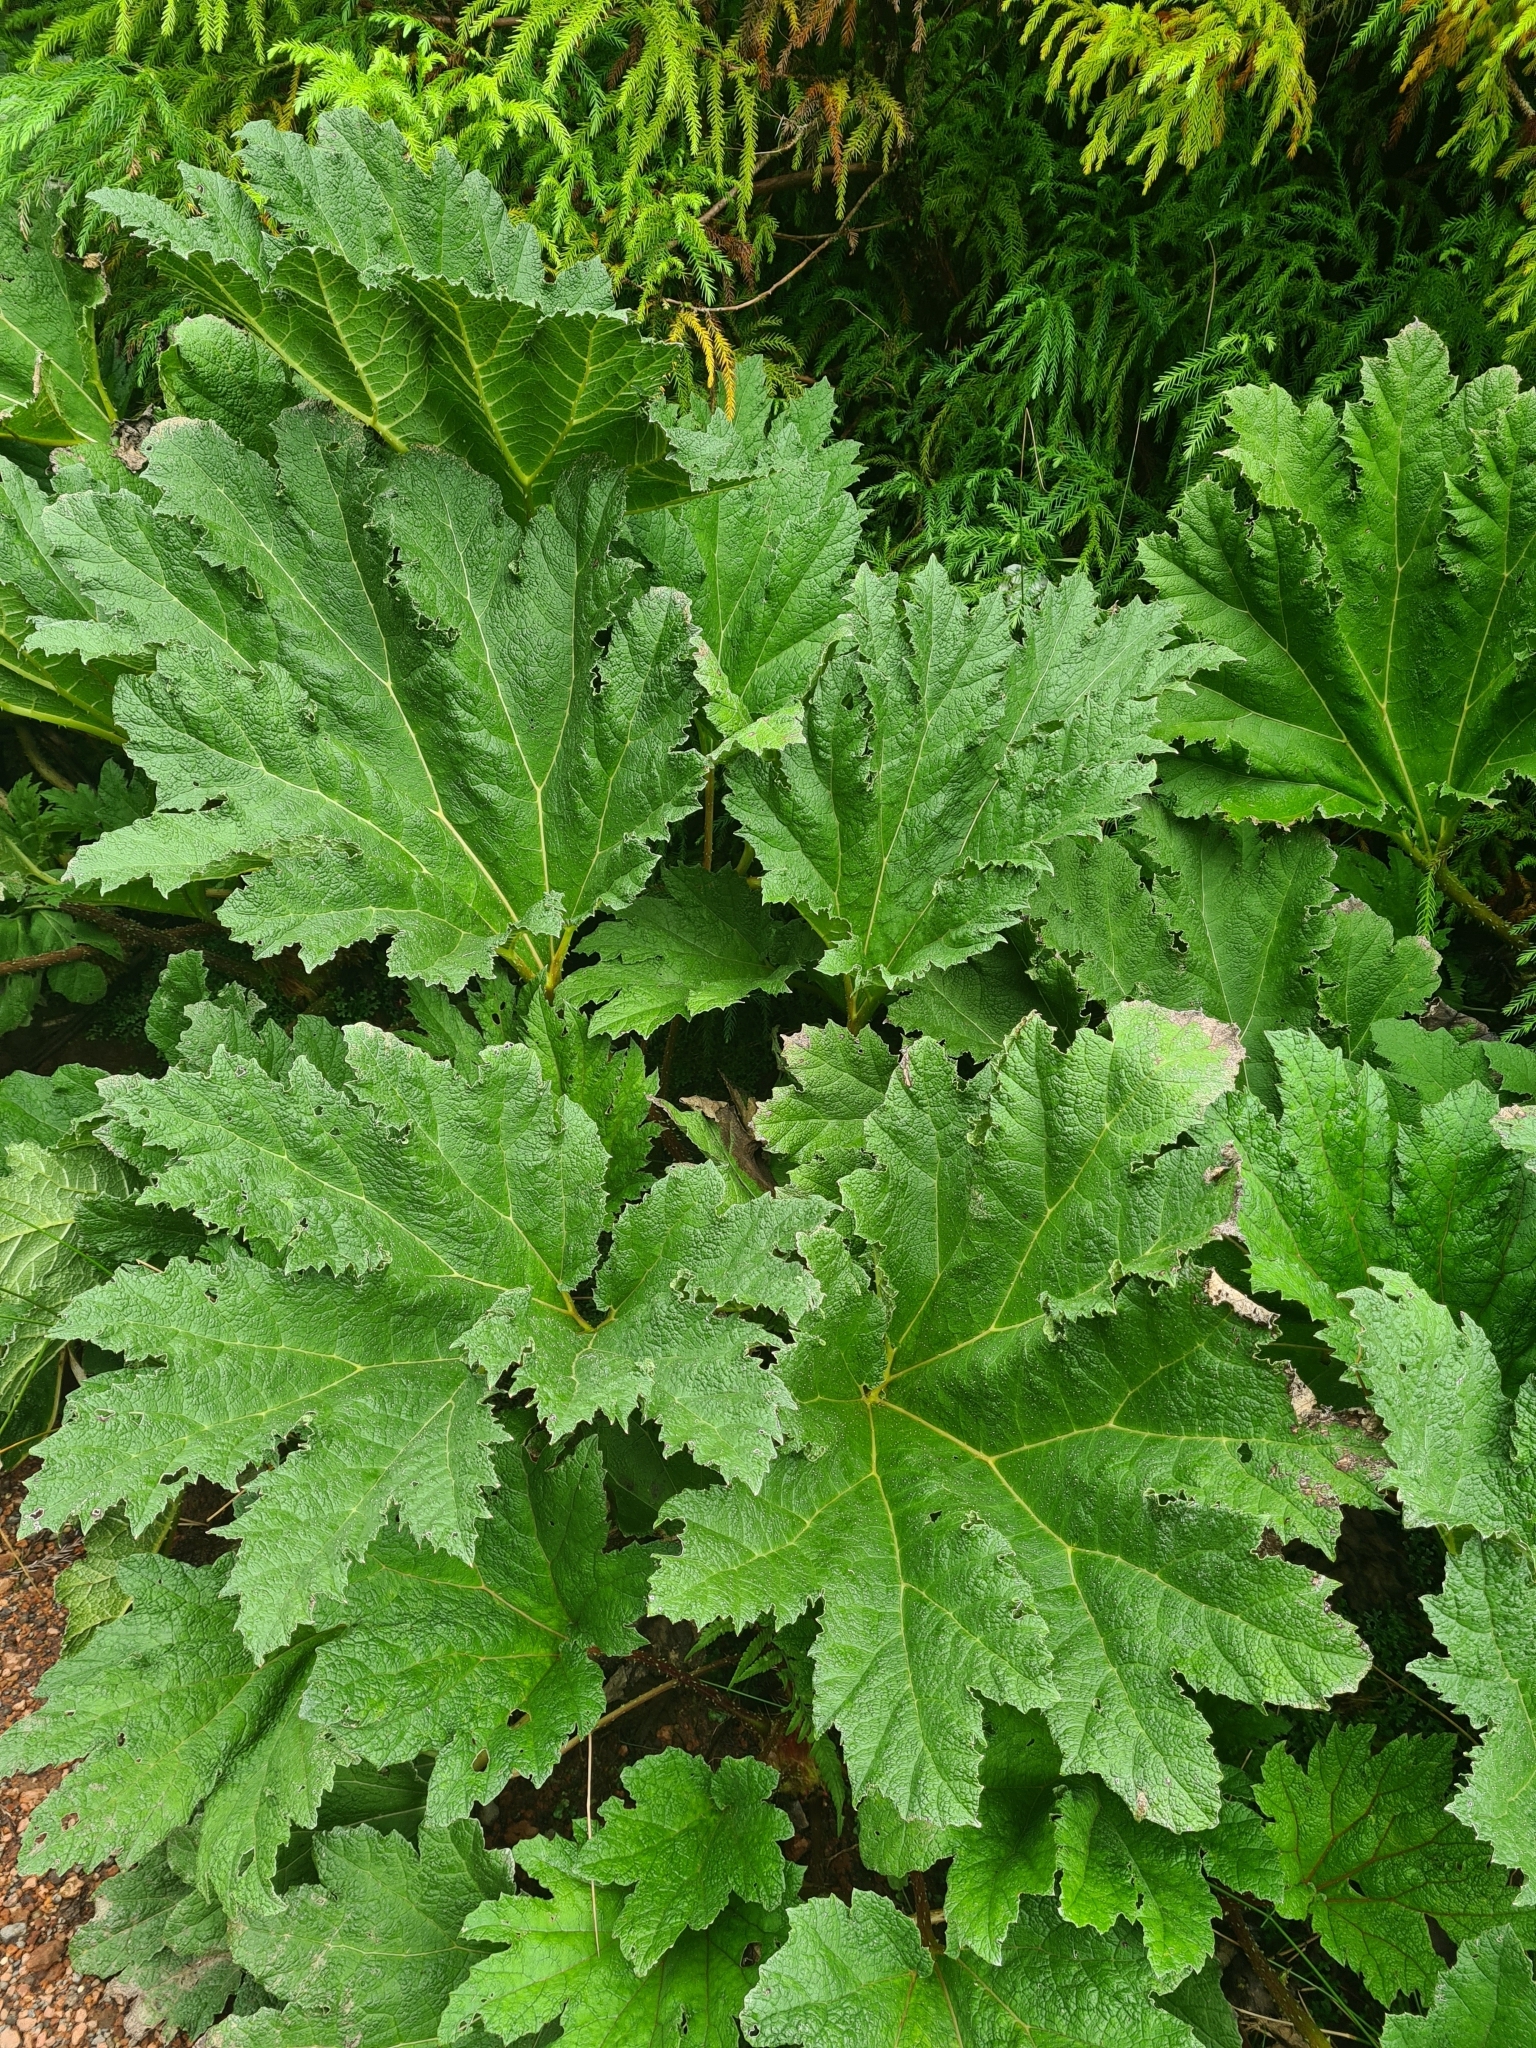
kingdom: Plantae
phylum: Tracheophyta
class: Magnoliopsida
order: Gunnerales
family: Gunneraceae
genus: Gunnera
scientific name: Gunnera tinctoria
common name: Giant-rhubarb
